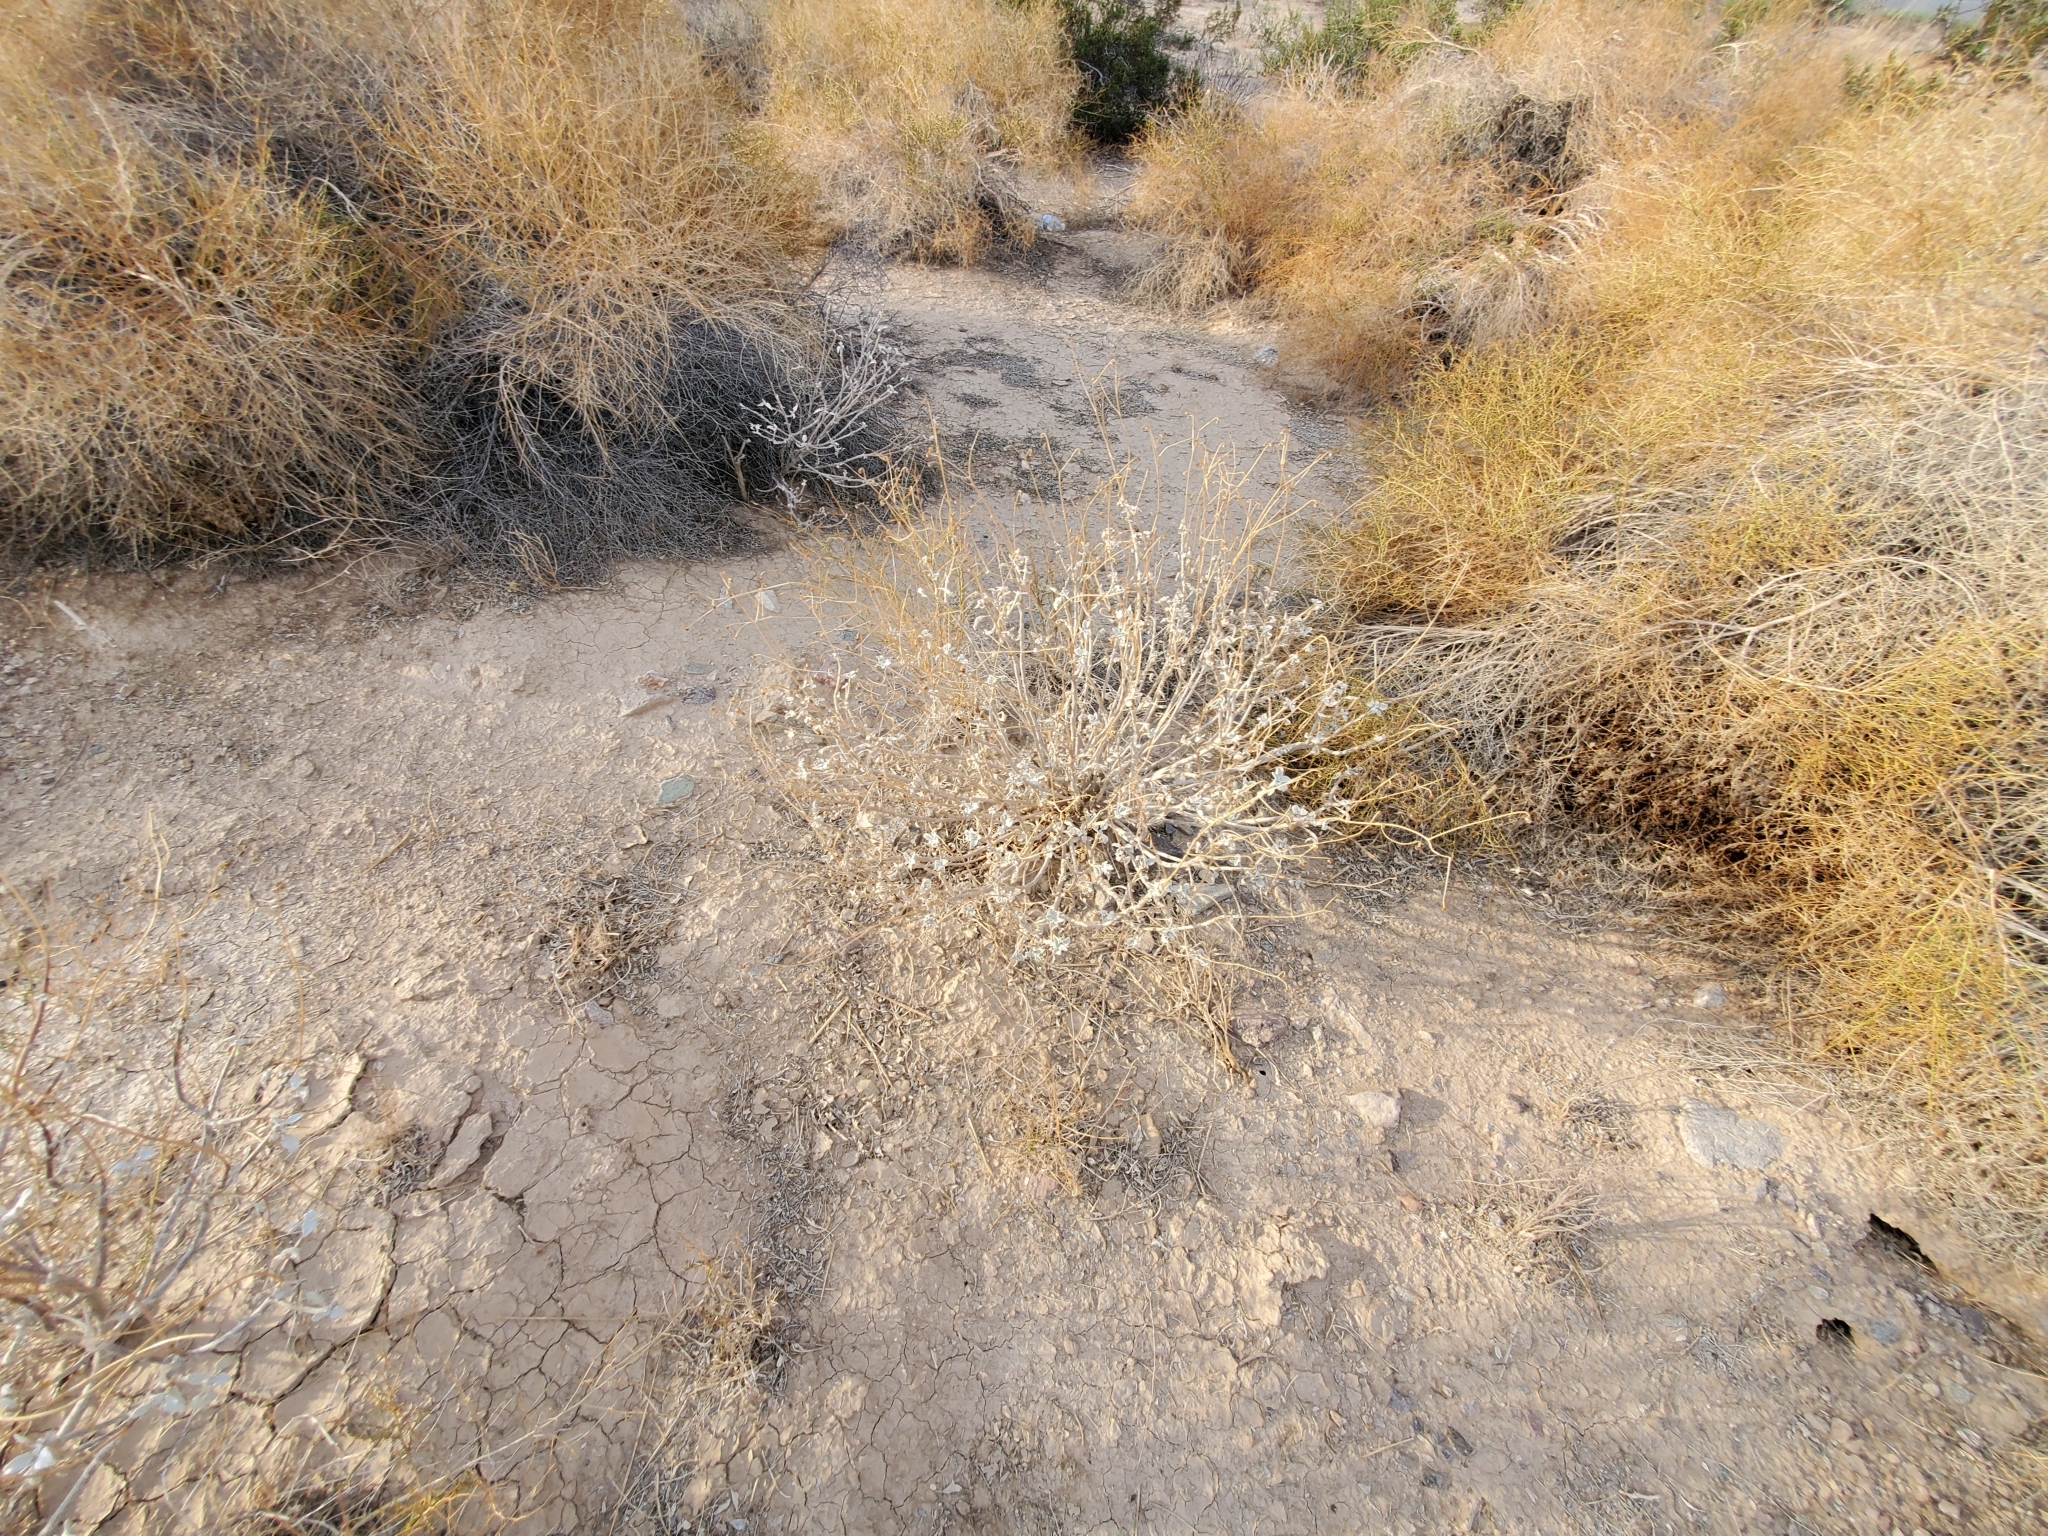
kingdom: Plantae
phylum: Tracheophyta
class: Magnoliopsida
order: Asterales
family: Asteraceae
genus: Encelia
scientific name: Encelia farinosa
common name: Brittlebush
